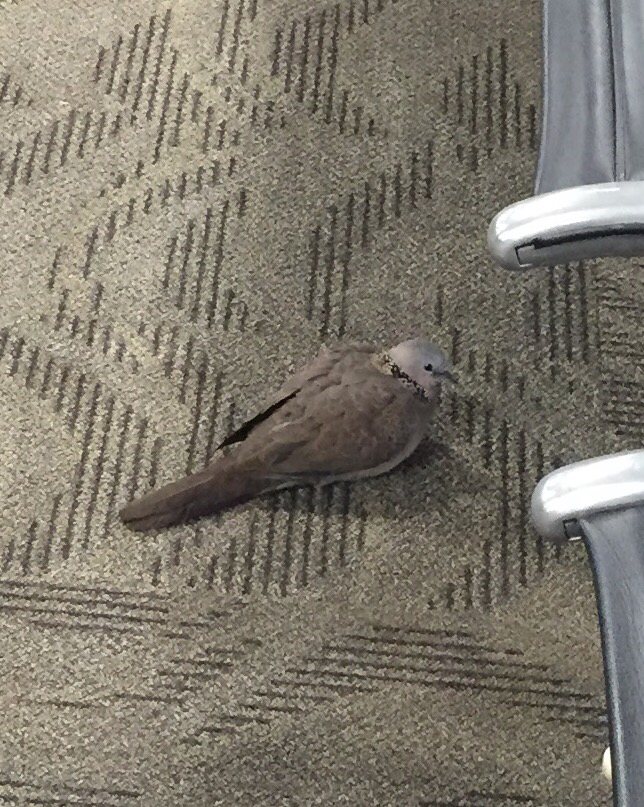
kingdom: Animalia
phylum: Chordata
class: Aves
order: Columbiformes
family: Columbidae
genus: Spilopelia
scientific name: Spilopelia chinensis
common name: Spotted dove
